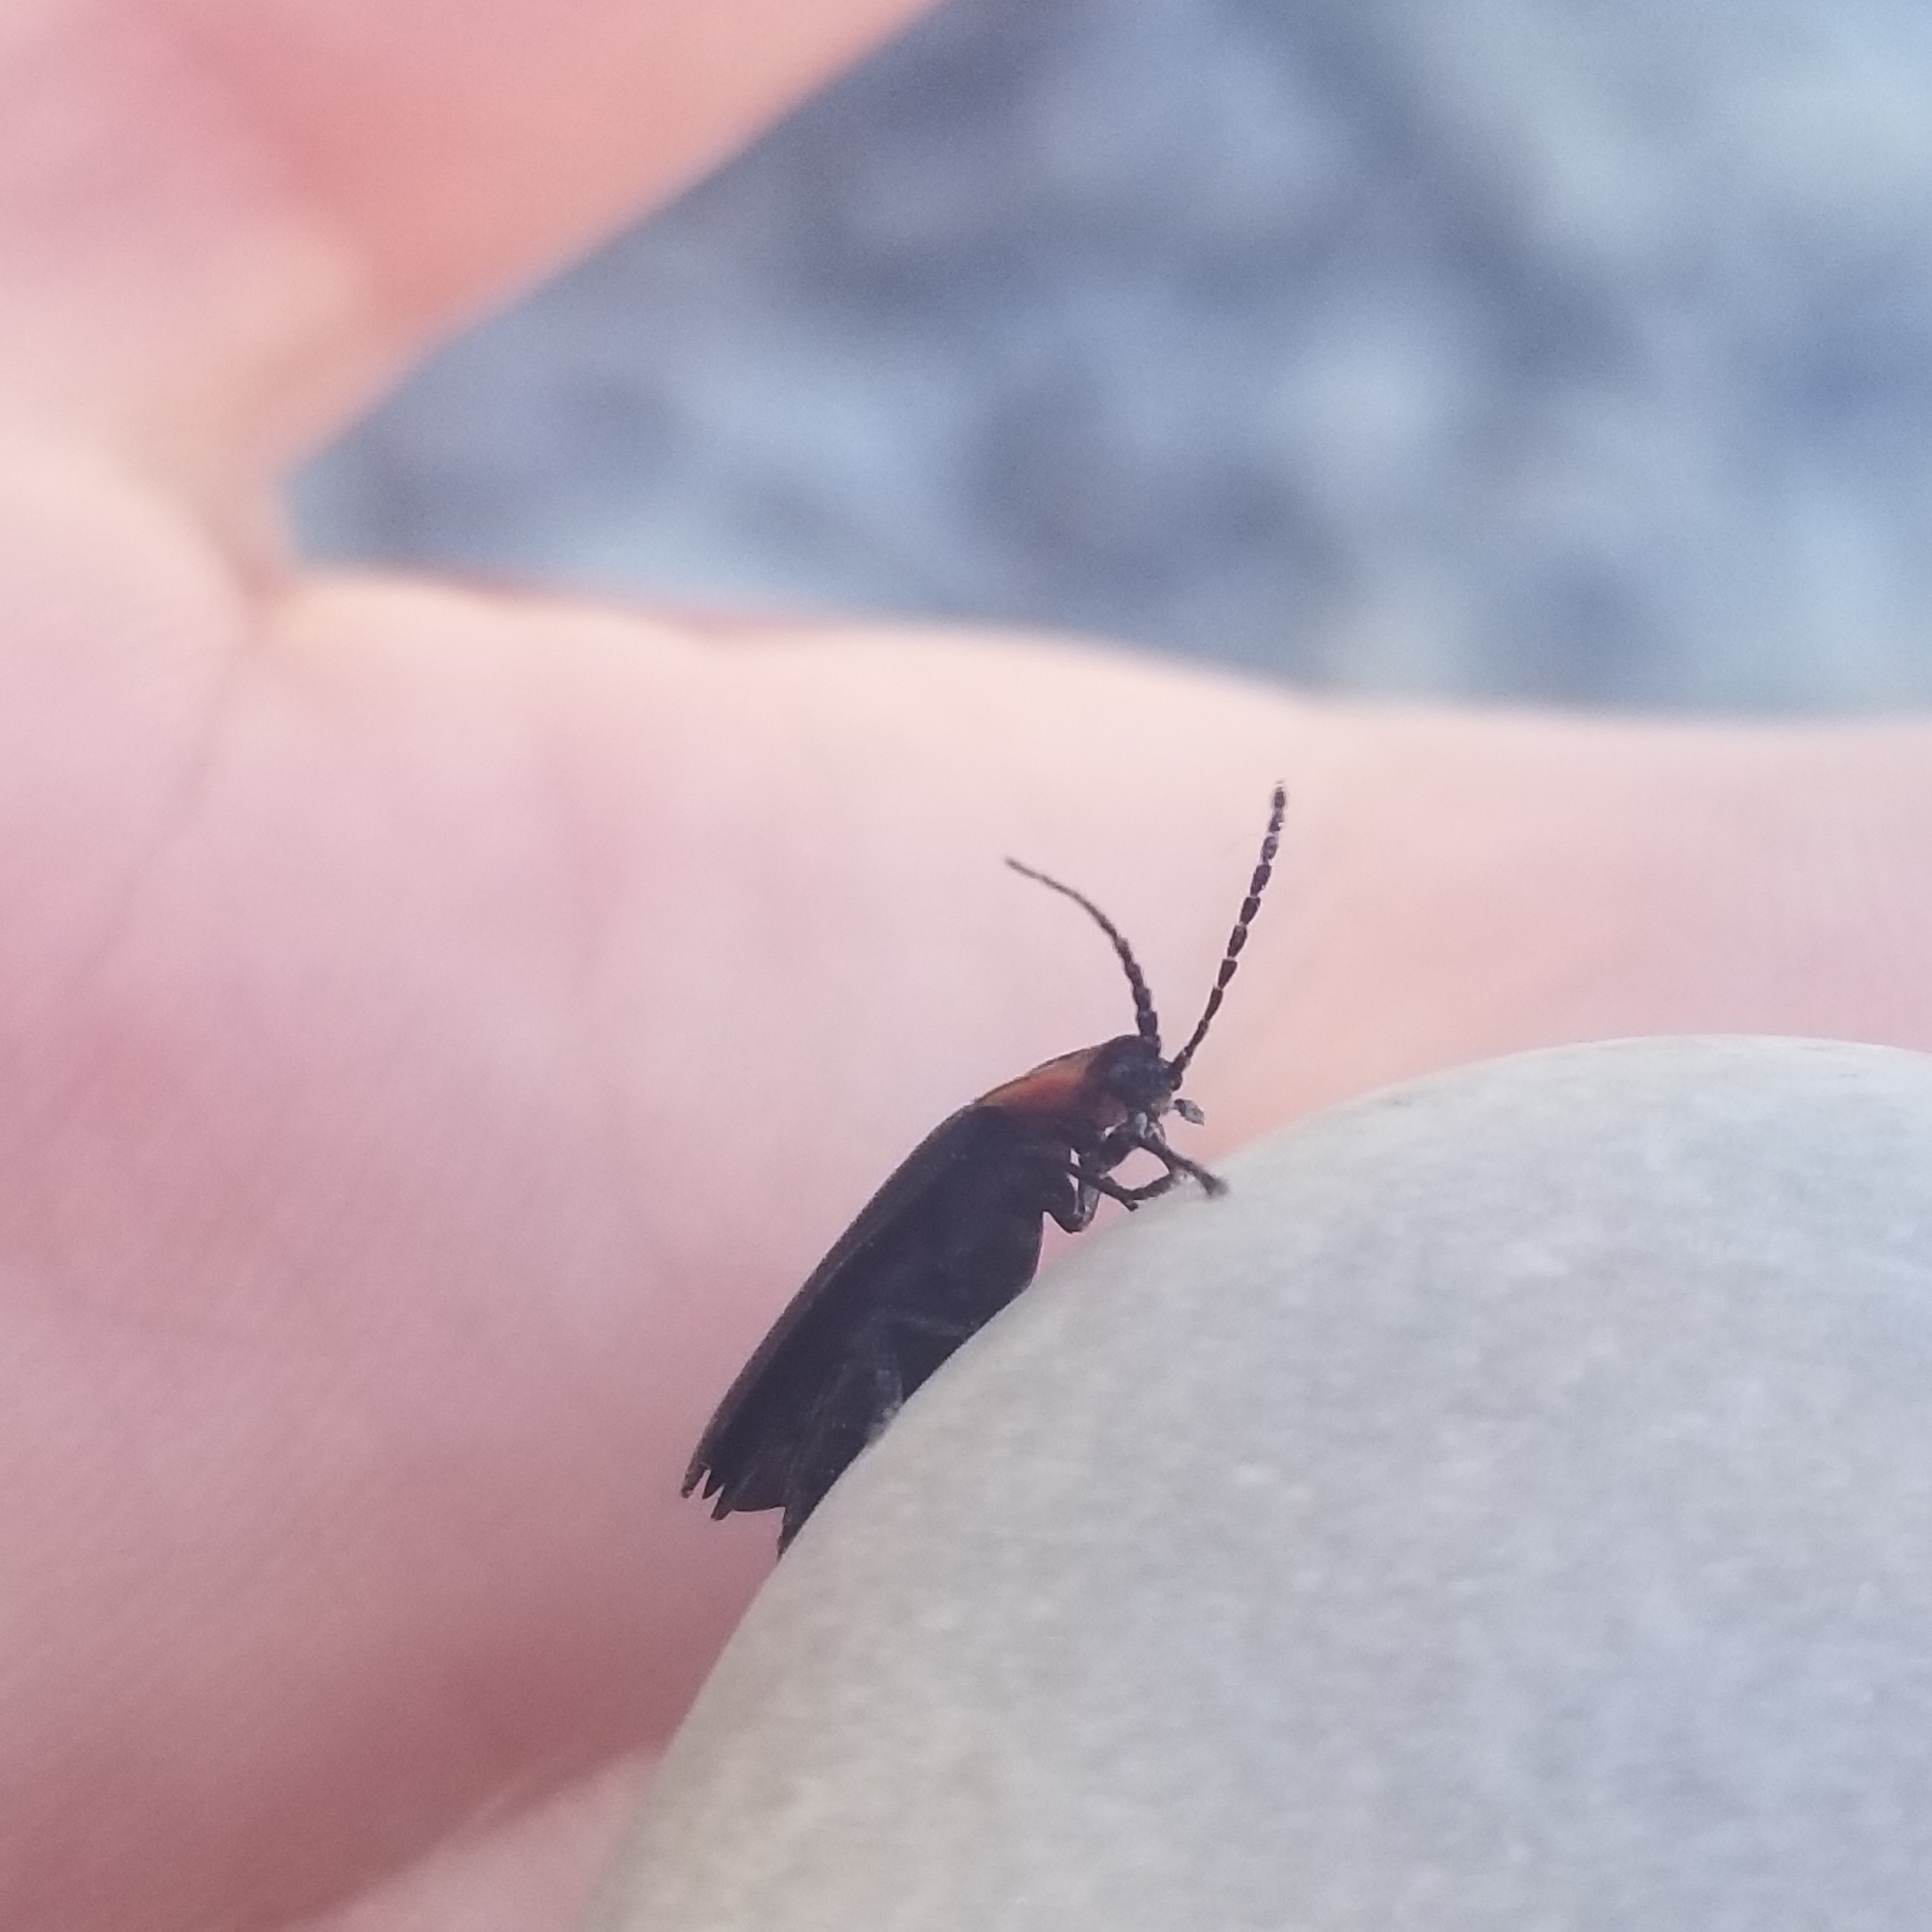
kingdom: Animalia
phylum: Arthropoda
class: Insecta
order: Coleoptera
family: Lampyridae
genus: Lucidota
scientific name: Lucidota atra
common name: Black firefly
